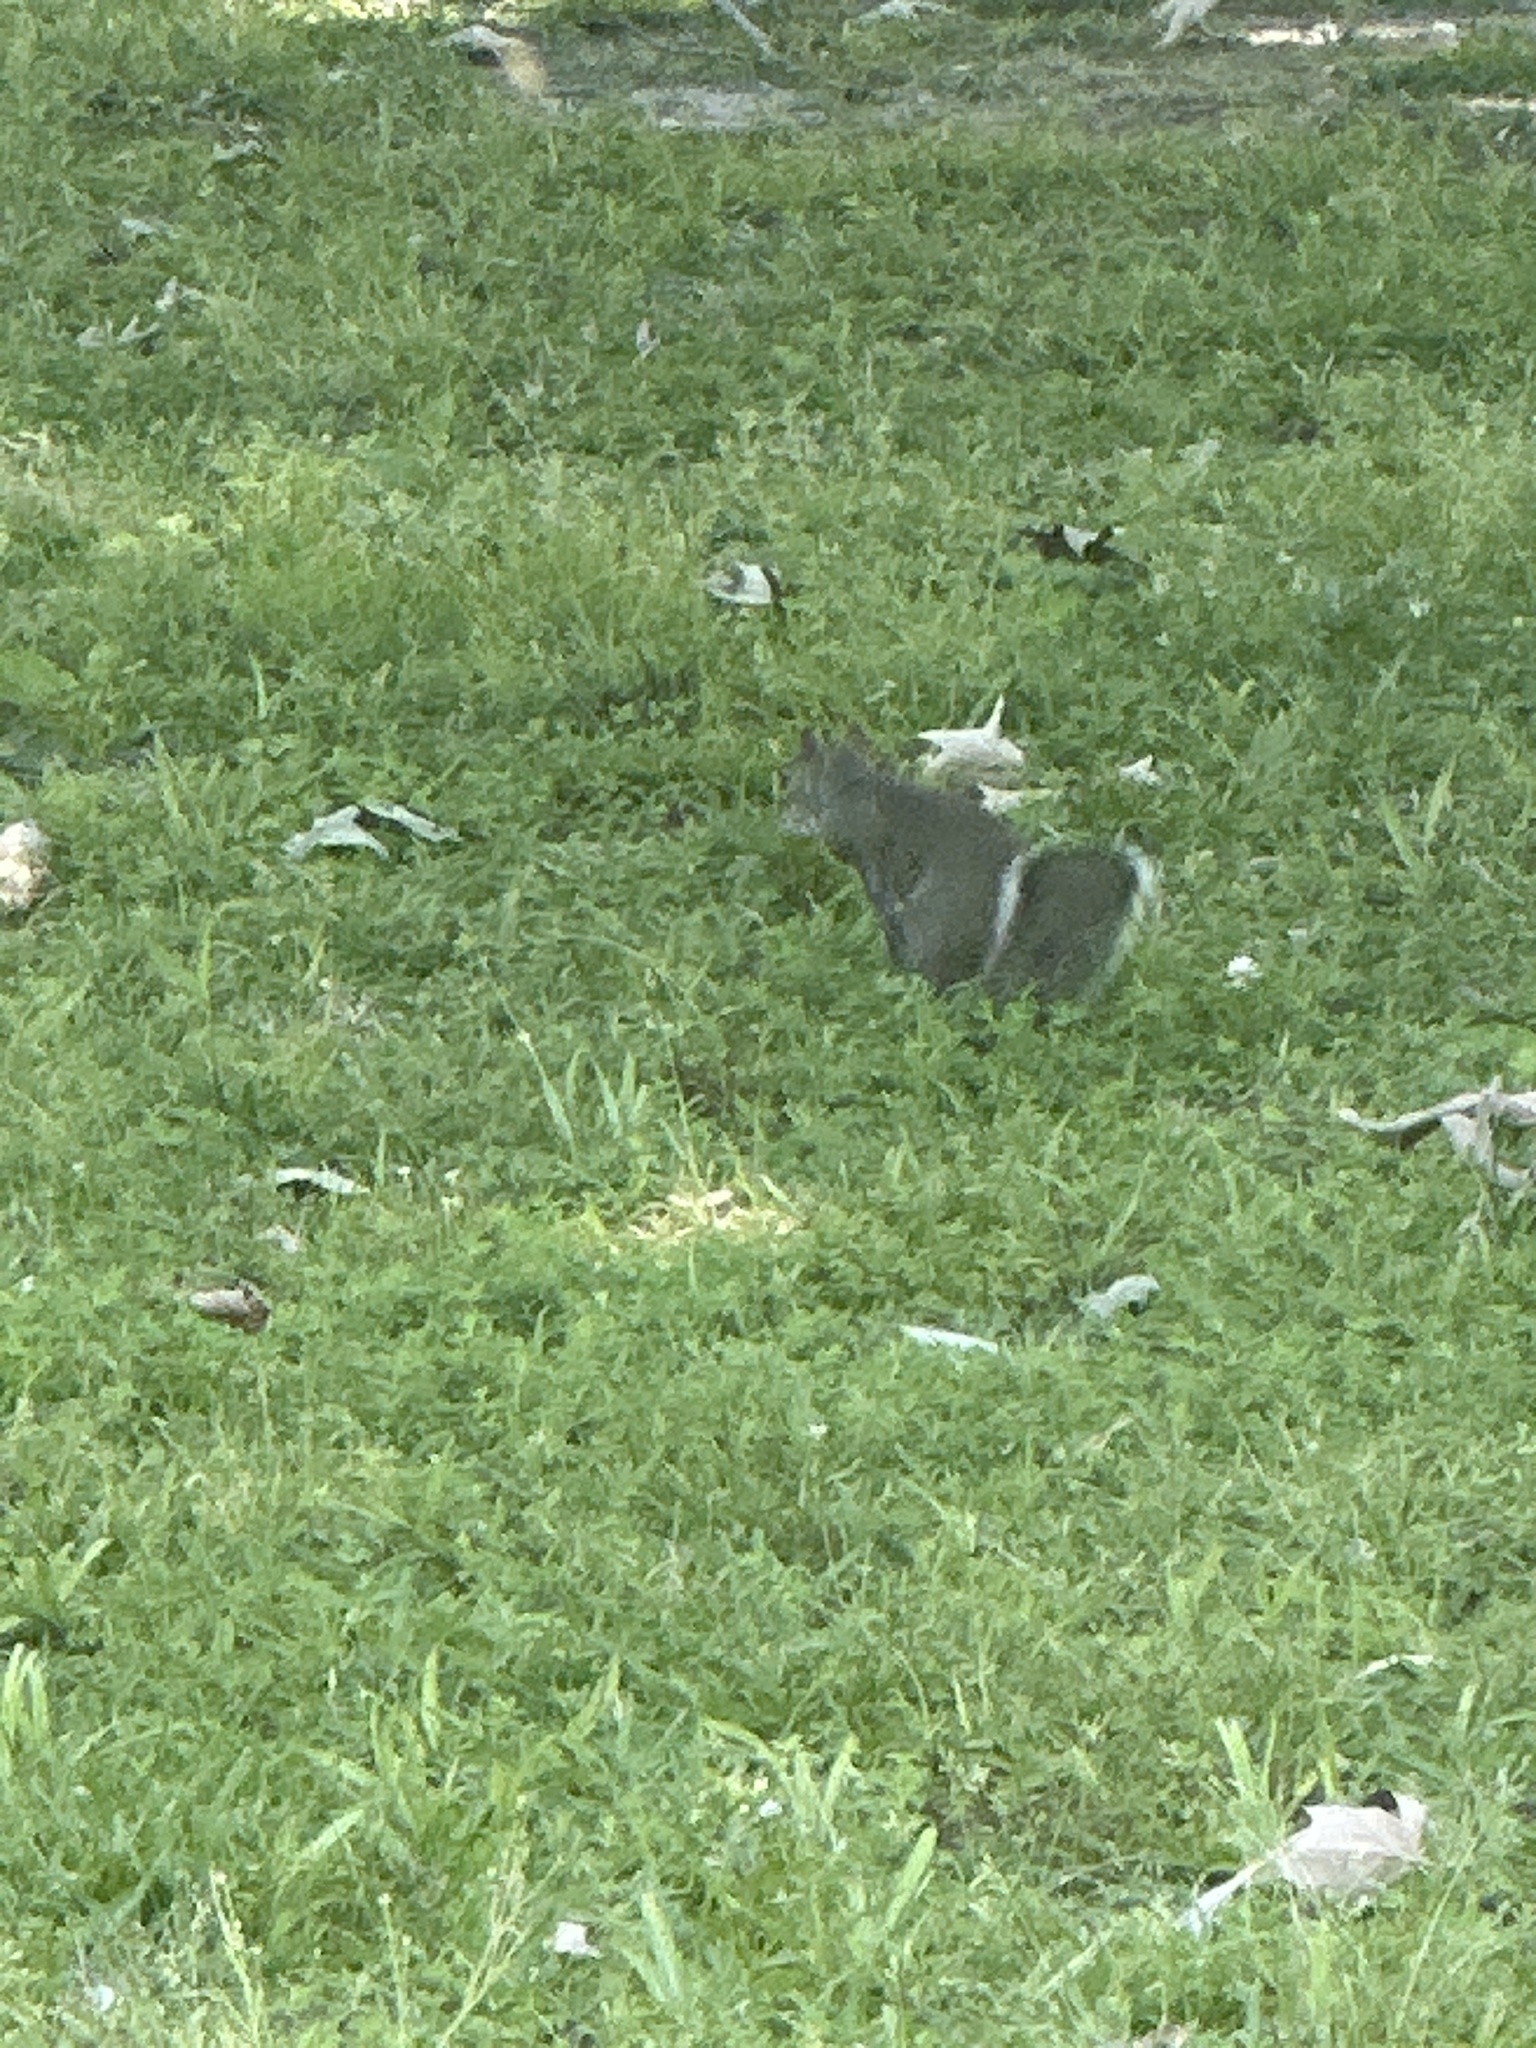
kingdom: Animalia
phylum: Chordata
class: Mammalia
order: Rodentia
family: Sciuridae
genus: Sciurus
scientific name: Sciurus carolinensis
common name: Eastern gray squirrel
